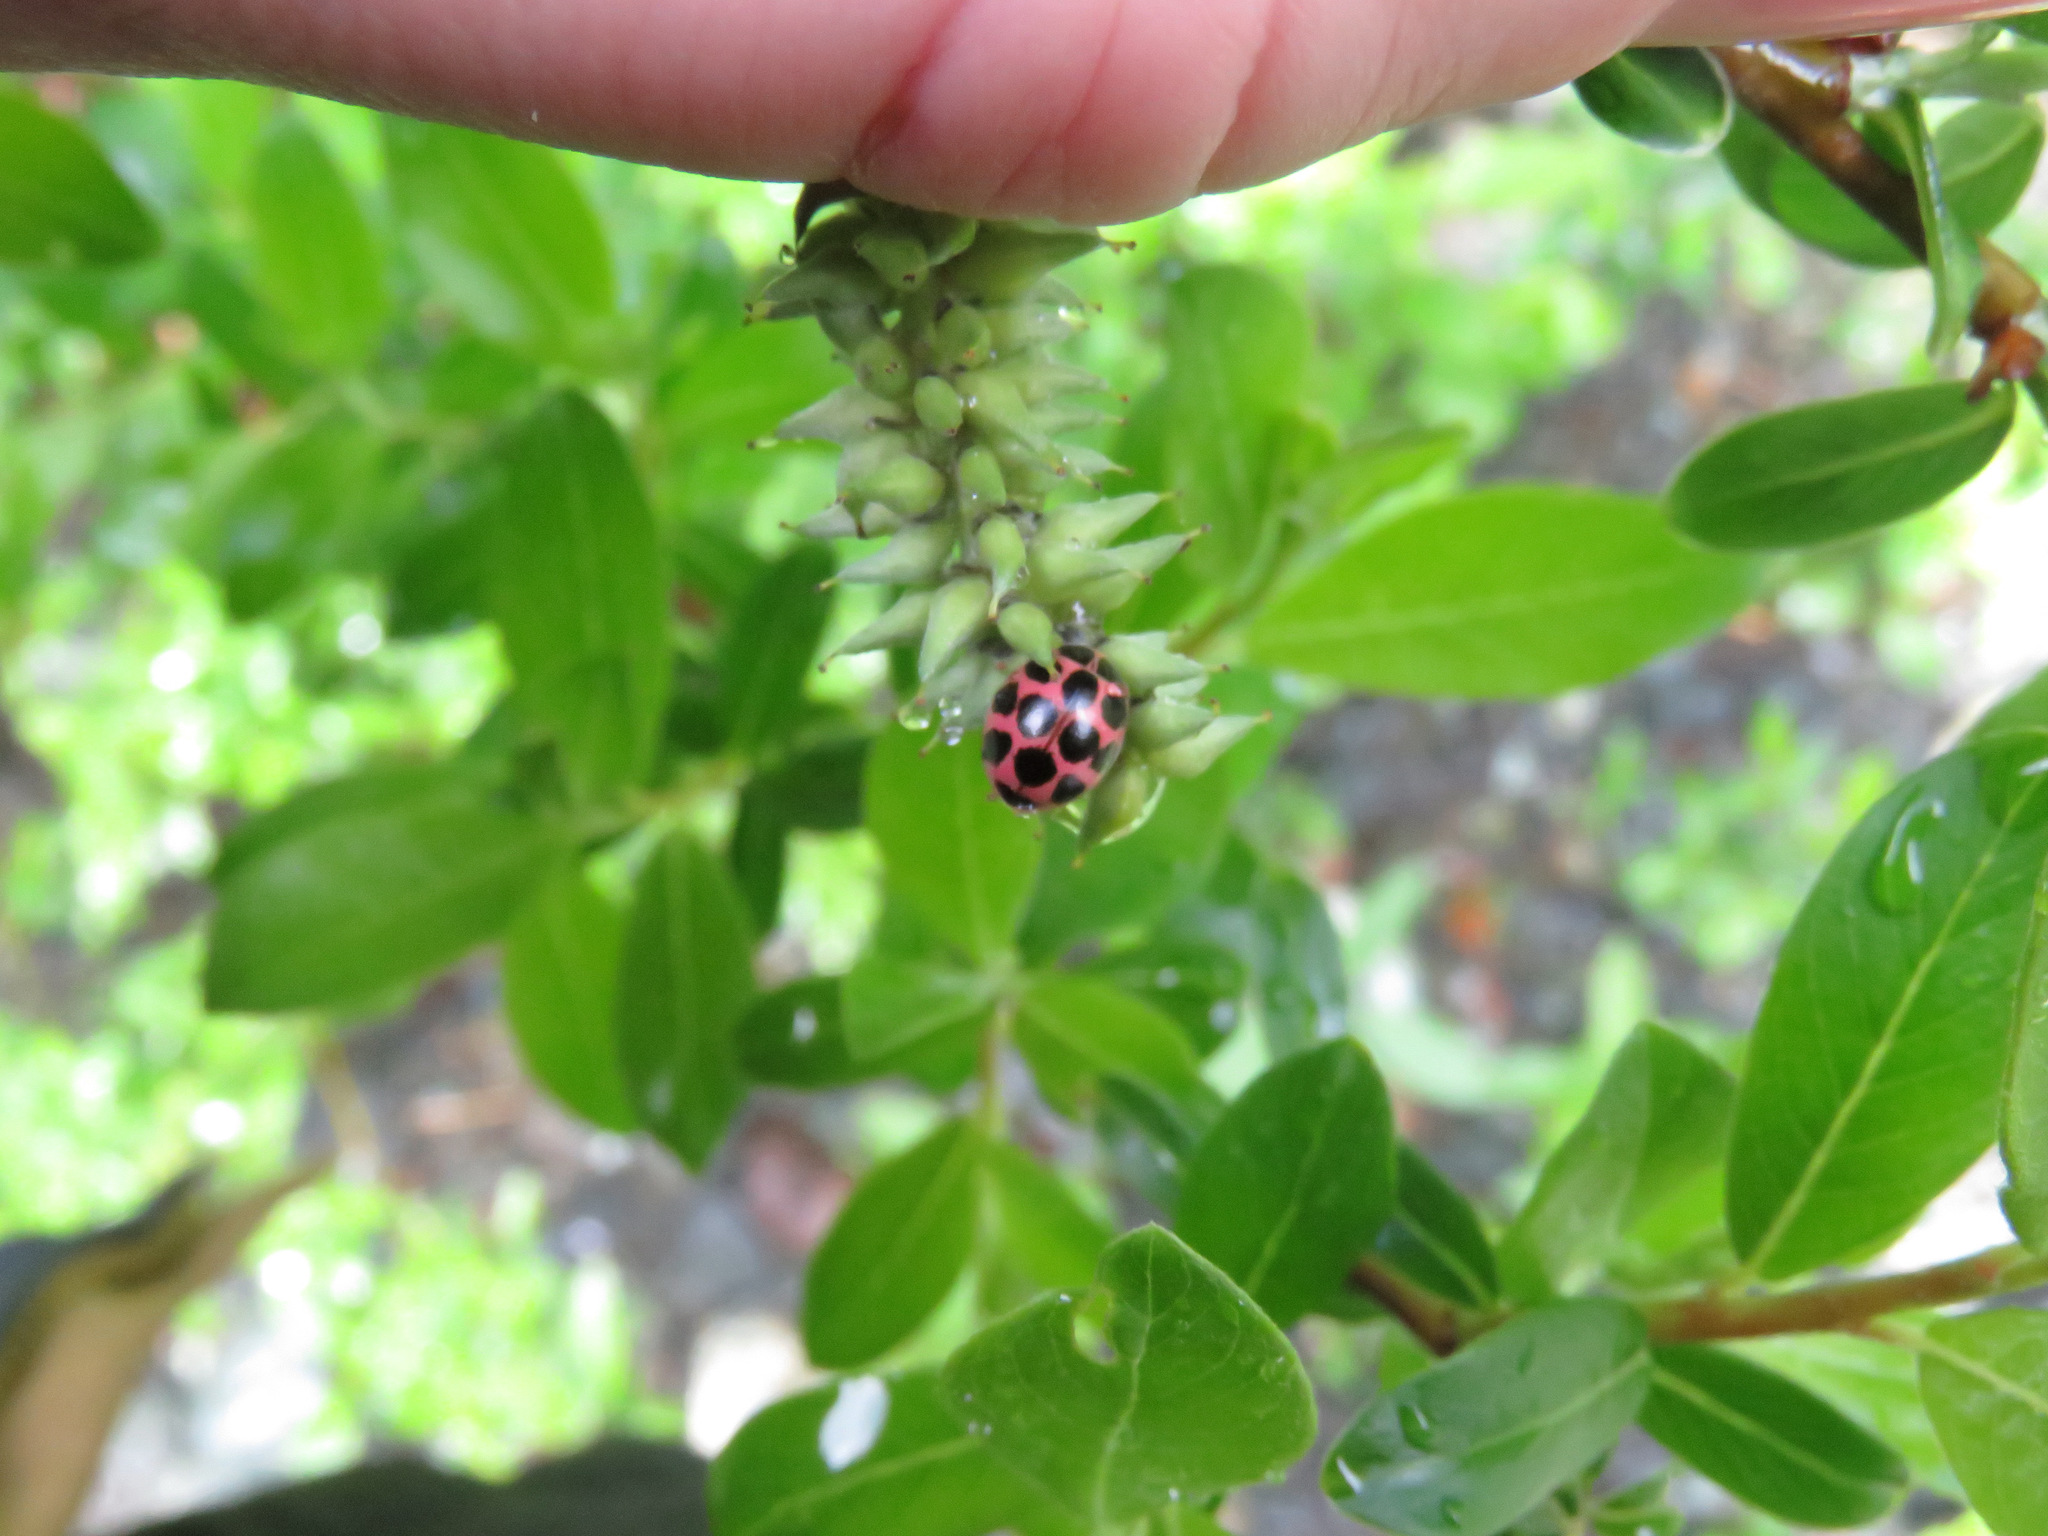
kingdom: Animalia
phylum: Arthropoda
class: Insecta
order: Coleoptera
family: Coccinellidae
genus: Calvia
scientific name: Calvia quatuordecimguttata
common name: Cream-spot ladybird
